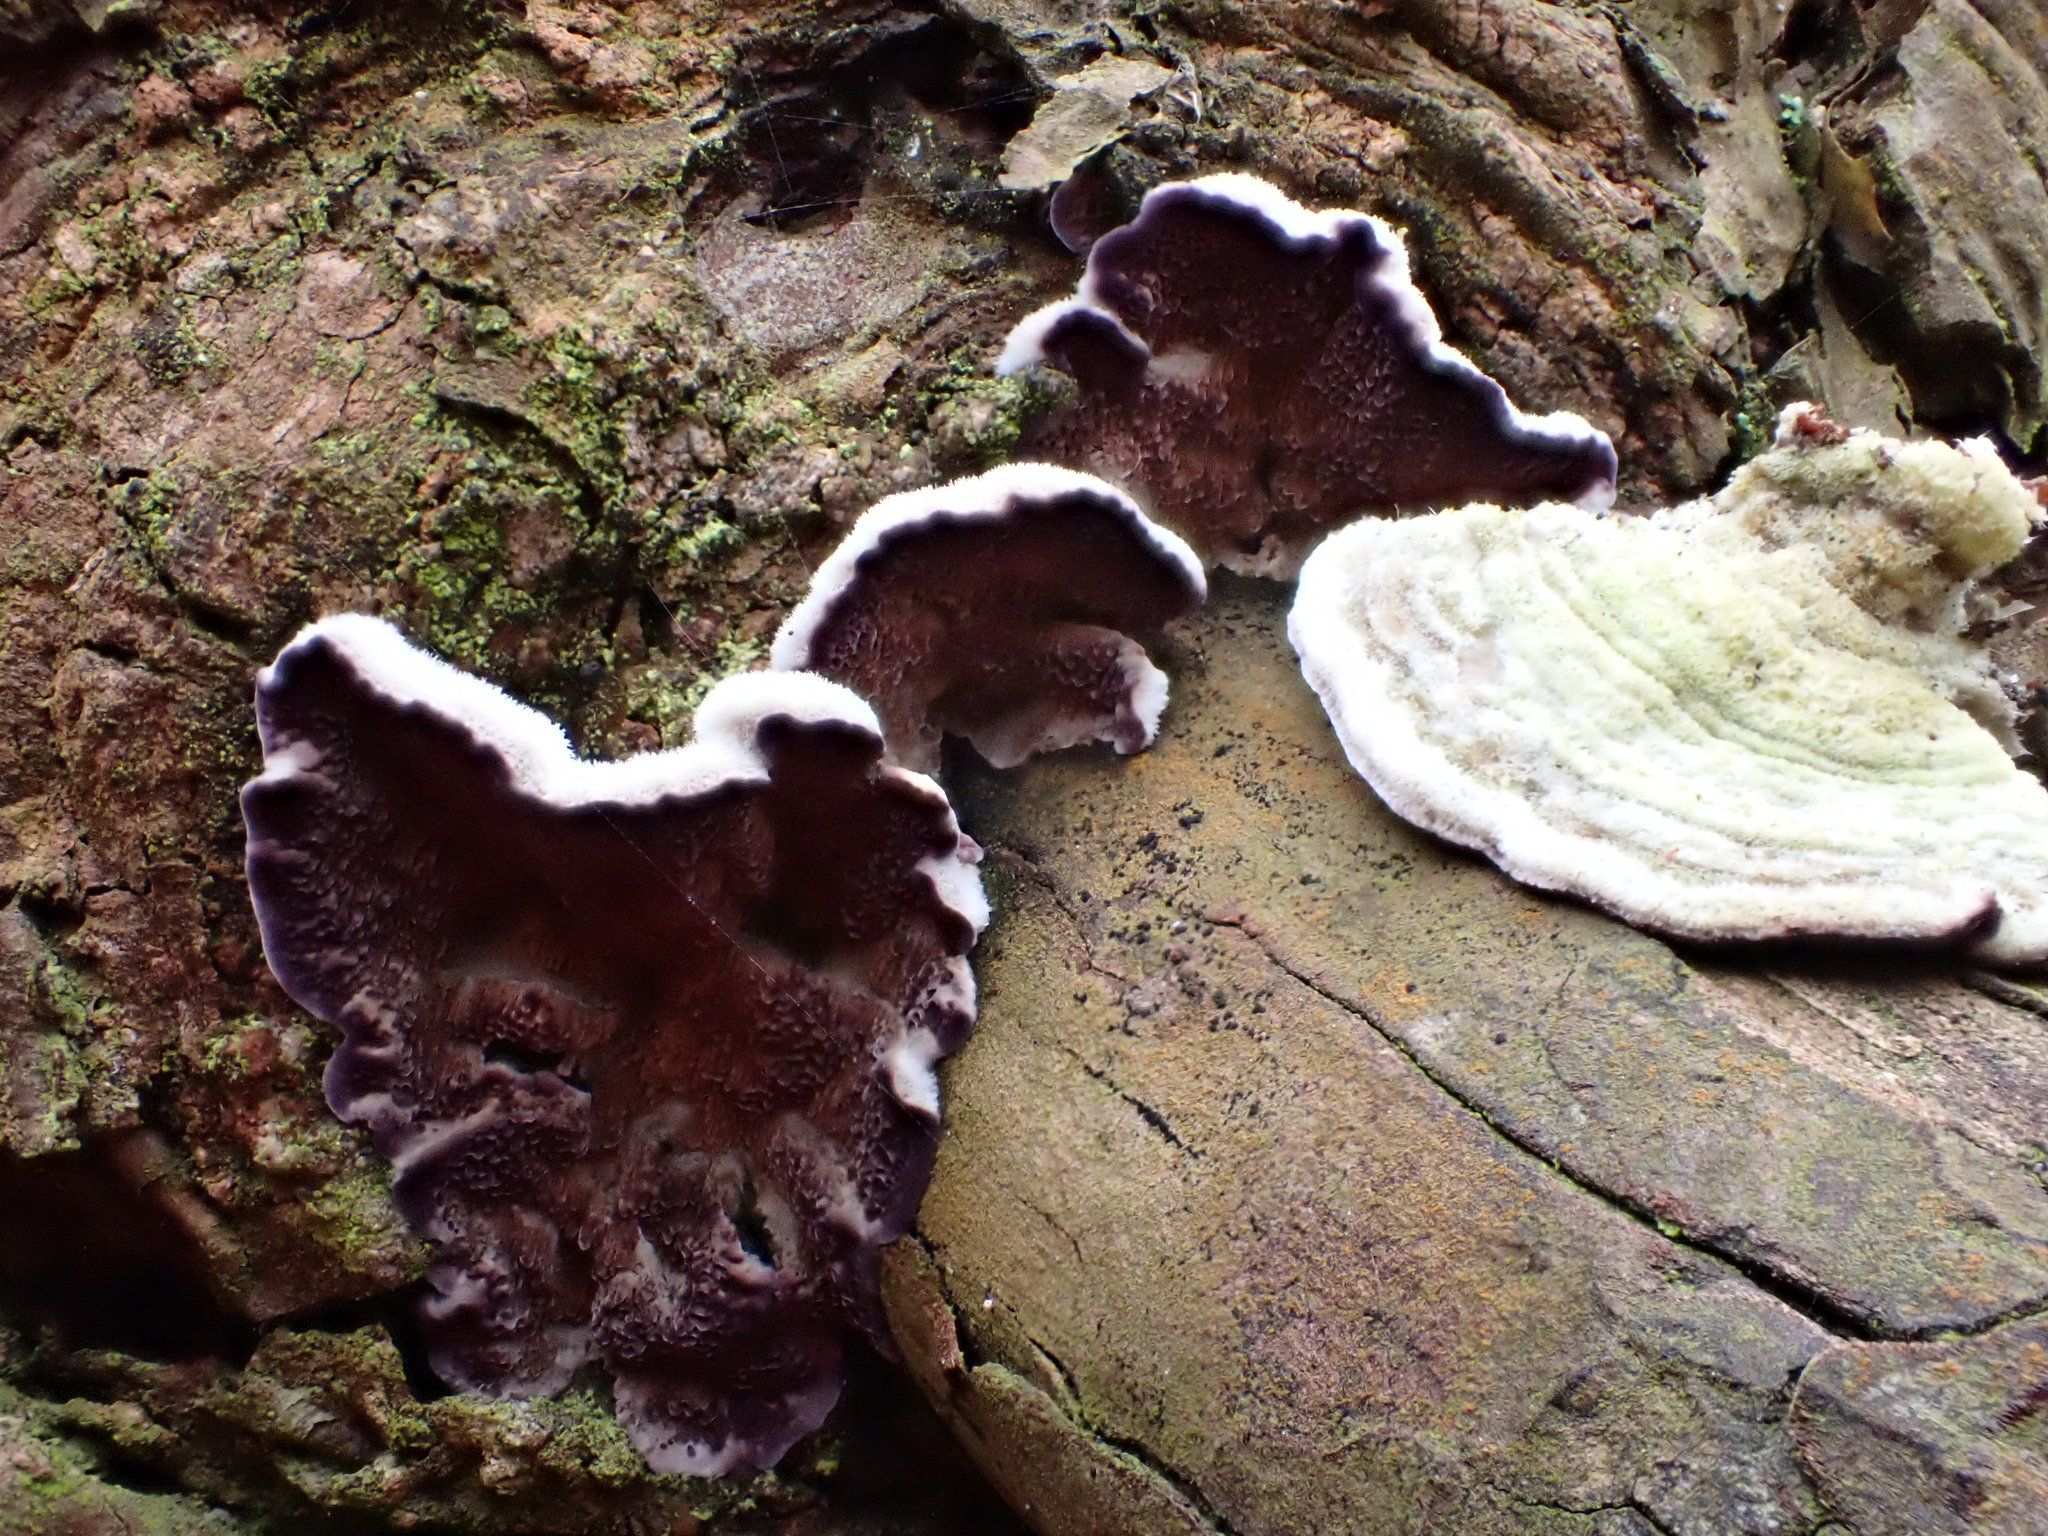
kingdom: Fungi
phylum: Basidiomycota
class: Agaricomycetes
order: Hymenochaetales
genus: Trichaptum
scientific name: Trichaptum abietinum
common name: Purplepore bracket
